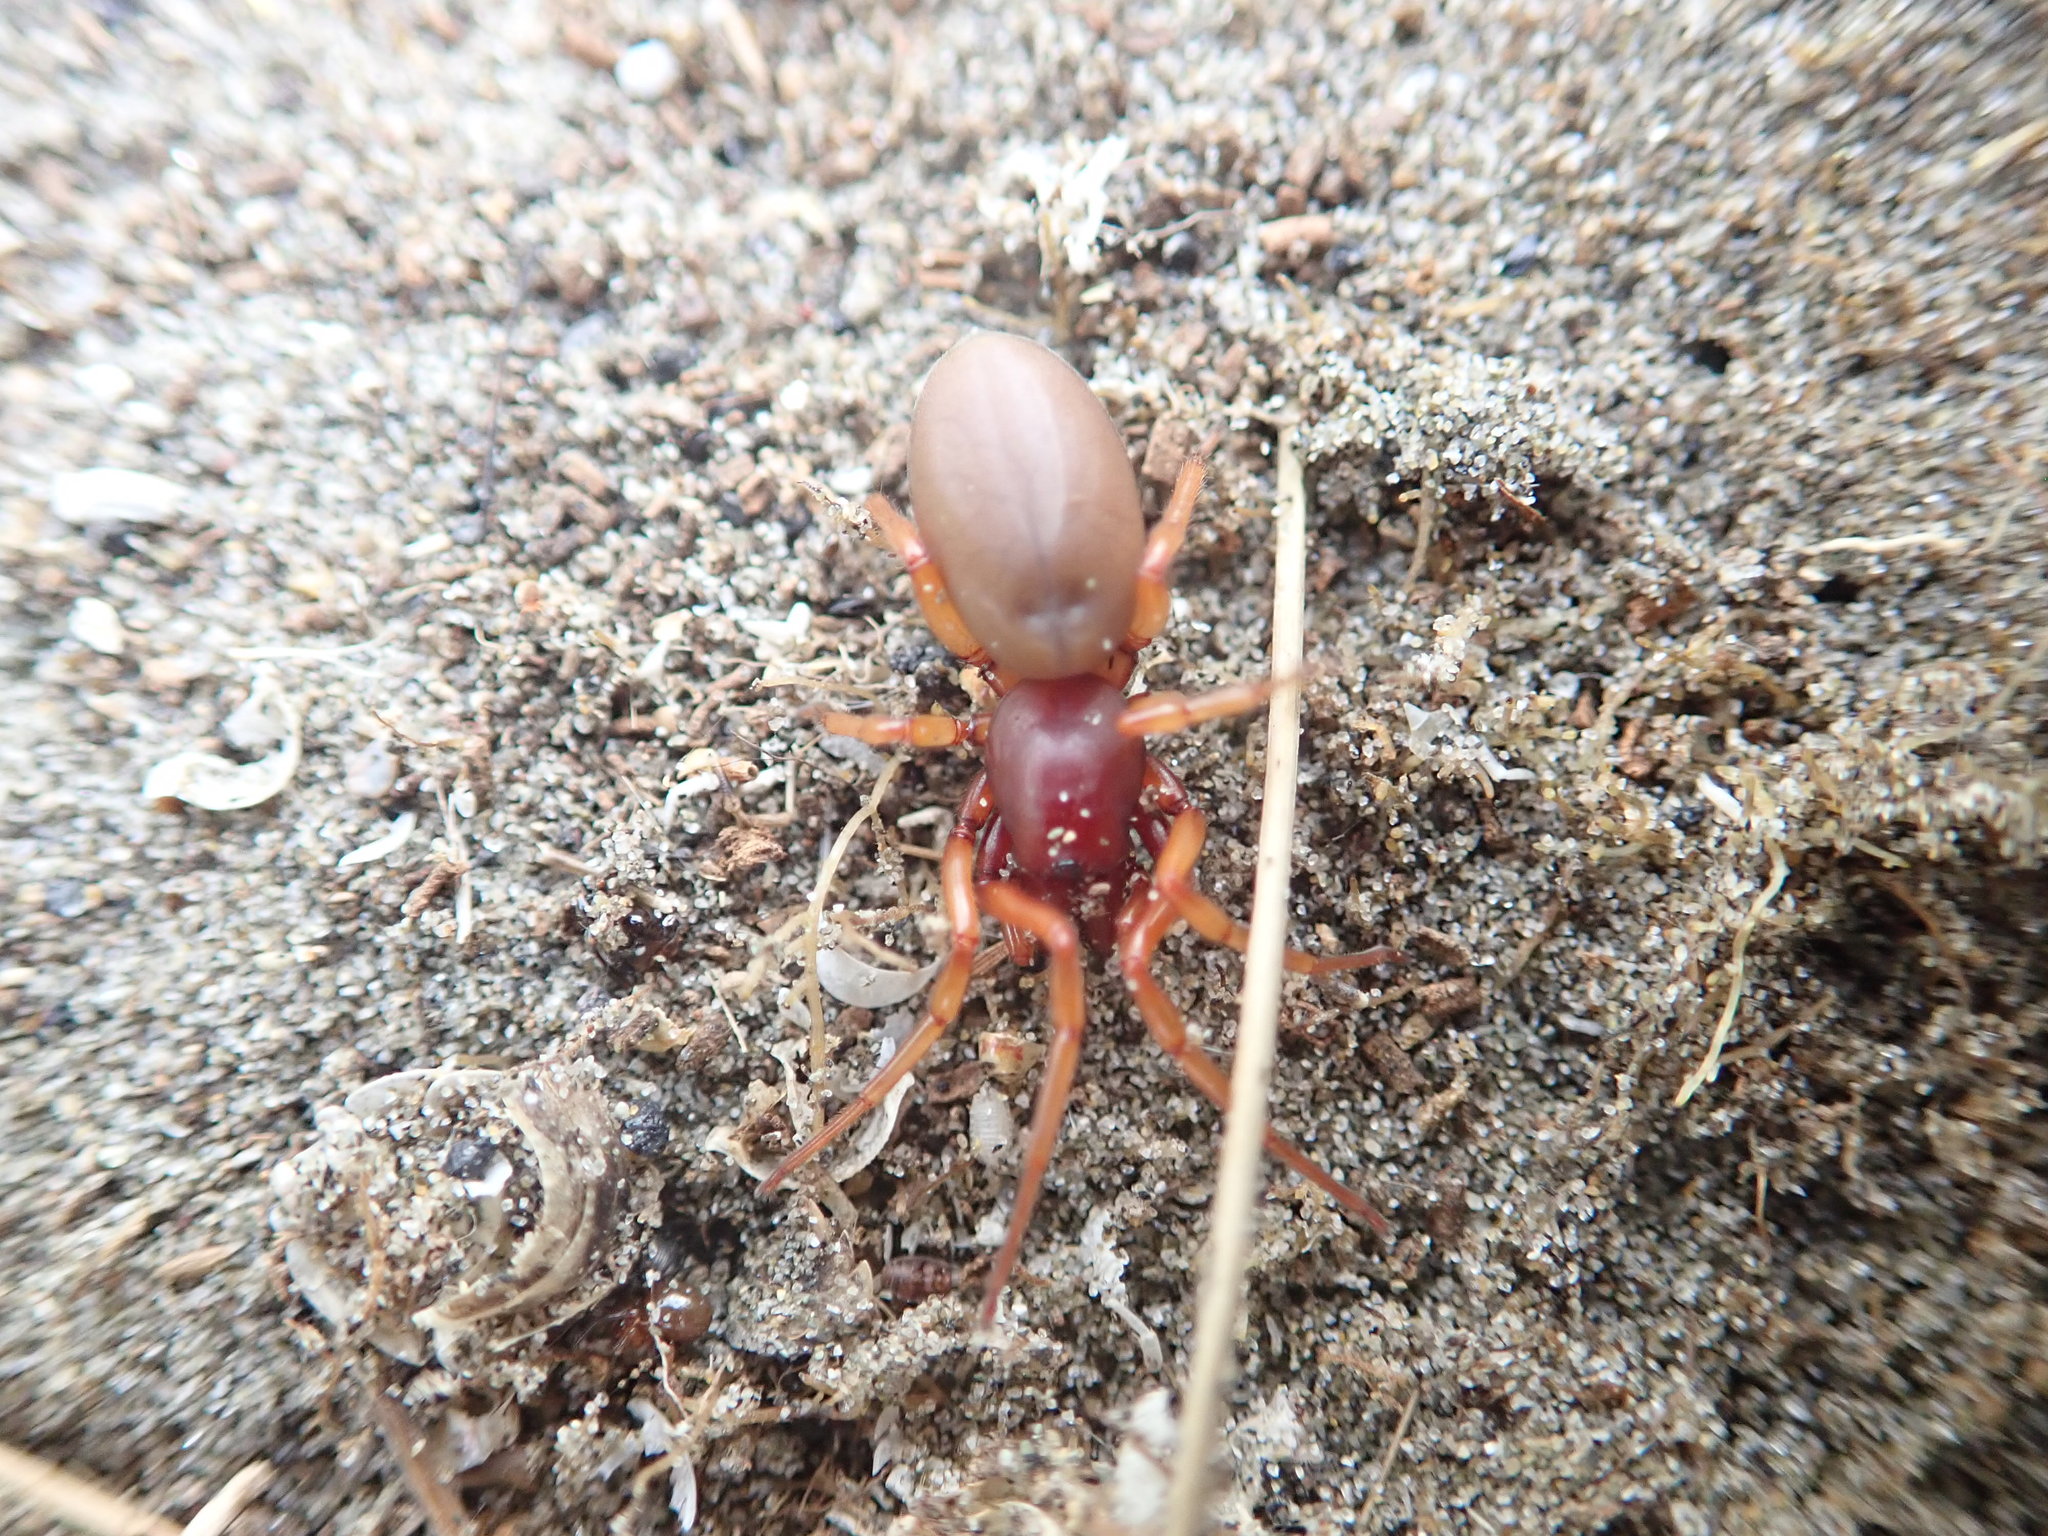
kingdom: Animalia
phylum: Arthropoda
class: Arachnida
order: Araneae
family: Dysderidae
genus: Dysdera
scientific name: Dysdera crocata
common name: Woodlouse spider
